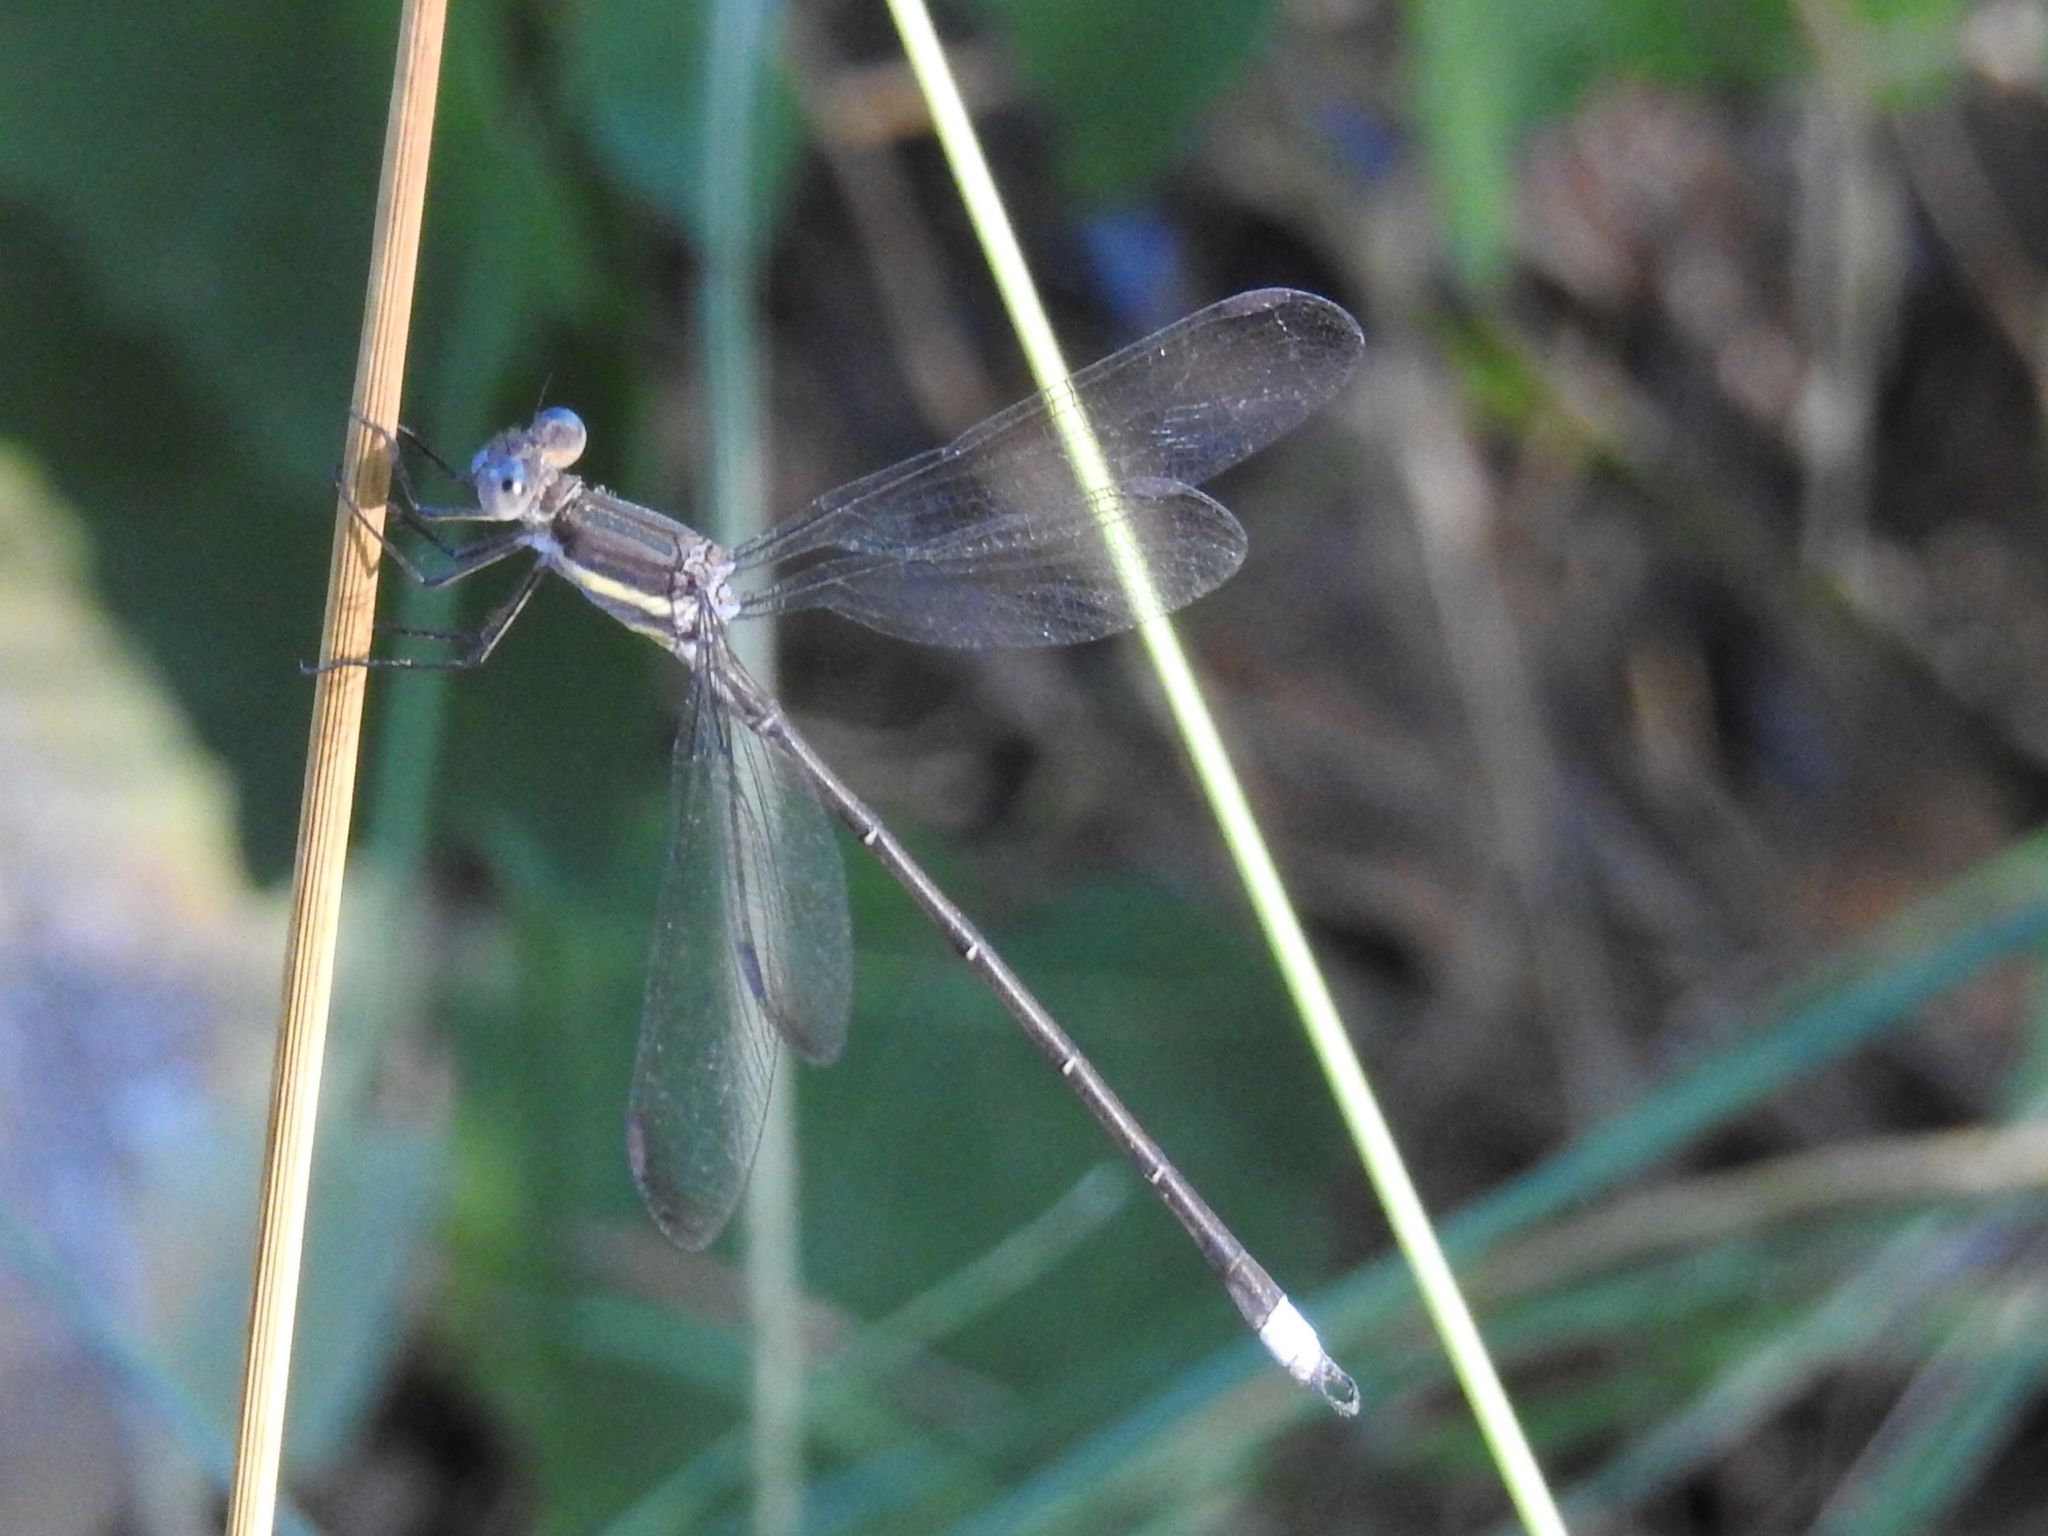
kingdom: Animalia
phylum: Arthropoda
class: Insecta
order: Odonata
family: Lestidae
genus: Archilestes
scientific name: Archilestes grandis
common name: Great spreadwing
